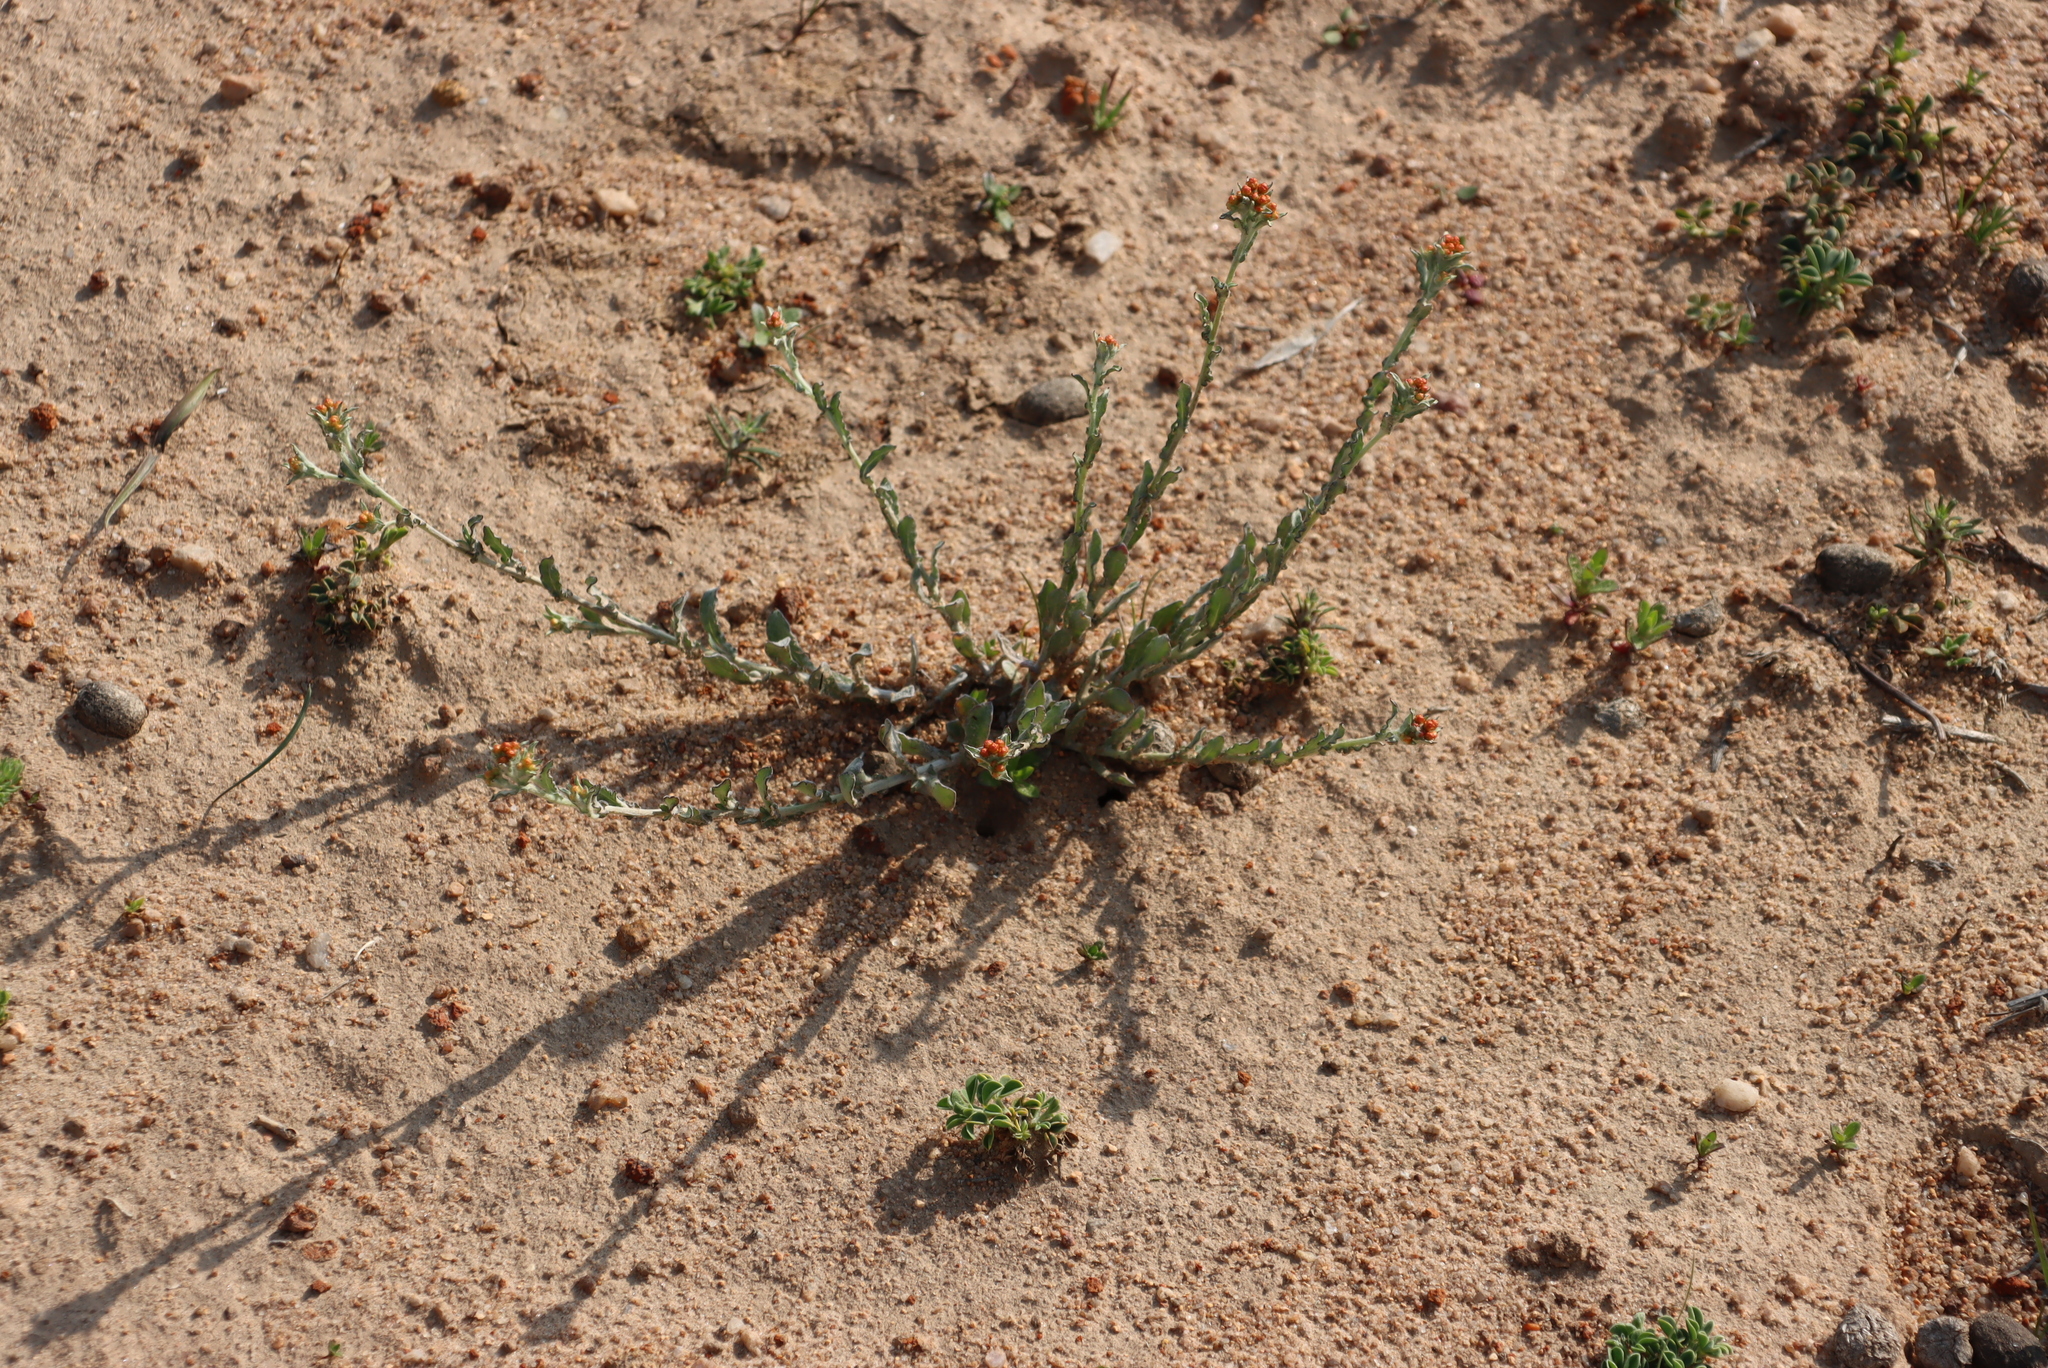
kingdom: Plantae
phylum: Tracheophyta
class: Magnoliopsida
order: Asterales
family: Asteraceae
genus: Helichrysum
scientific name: Helichrysum pulchellum
